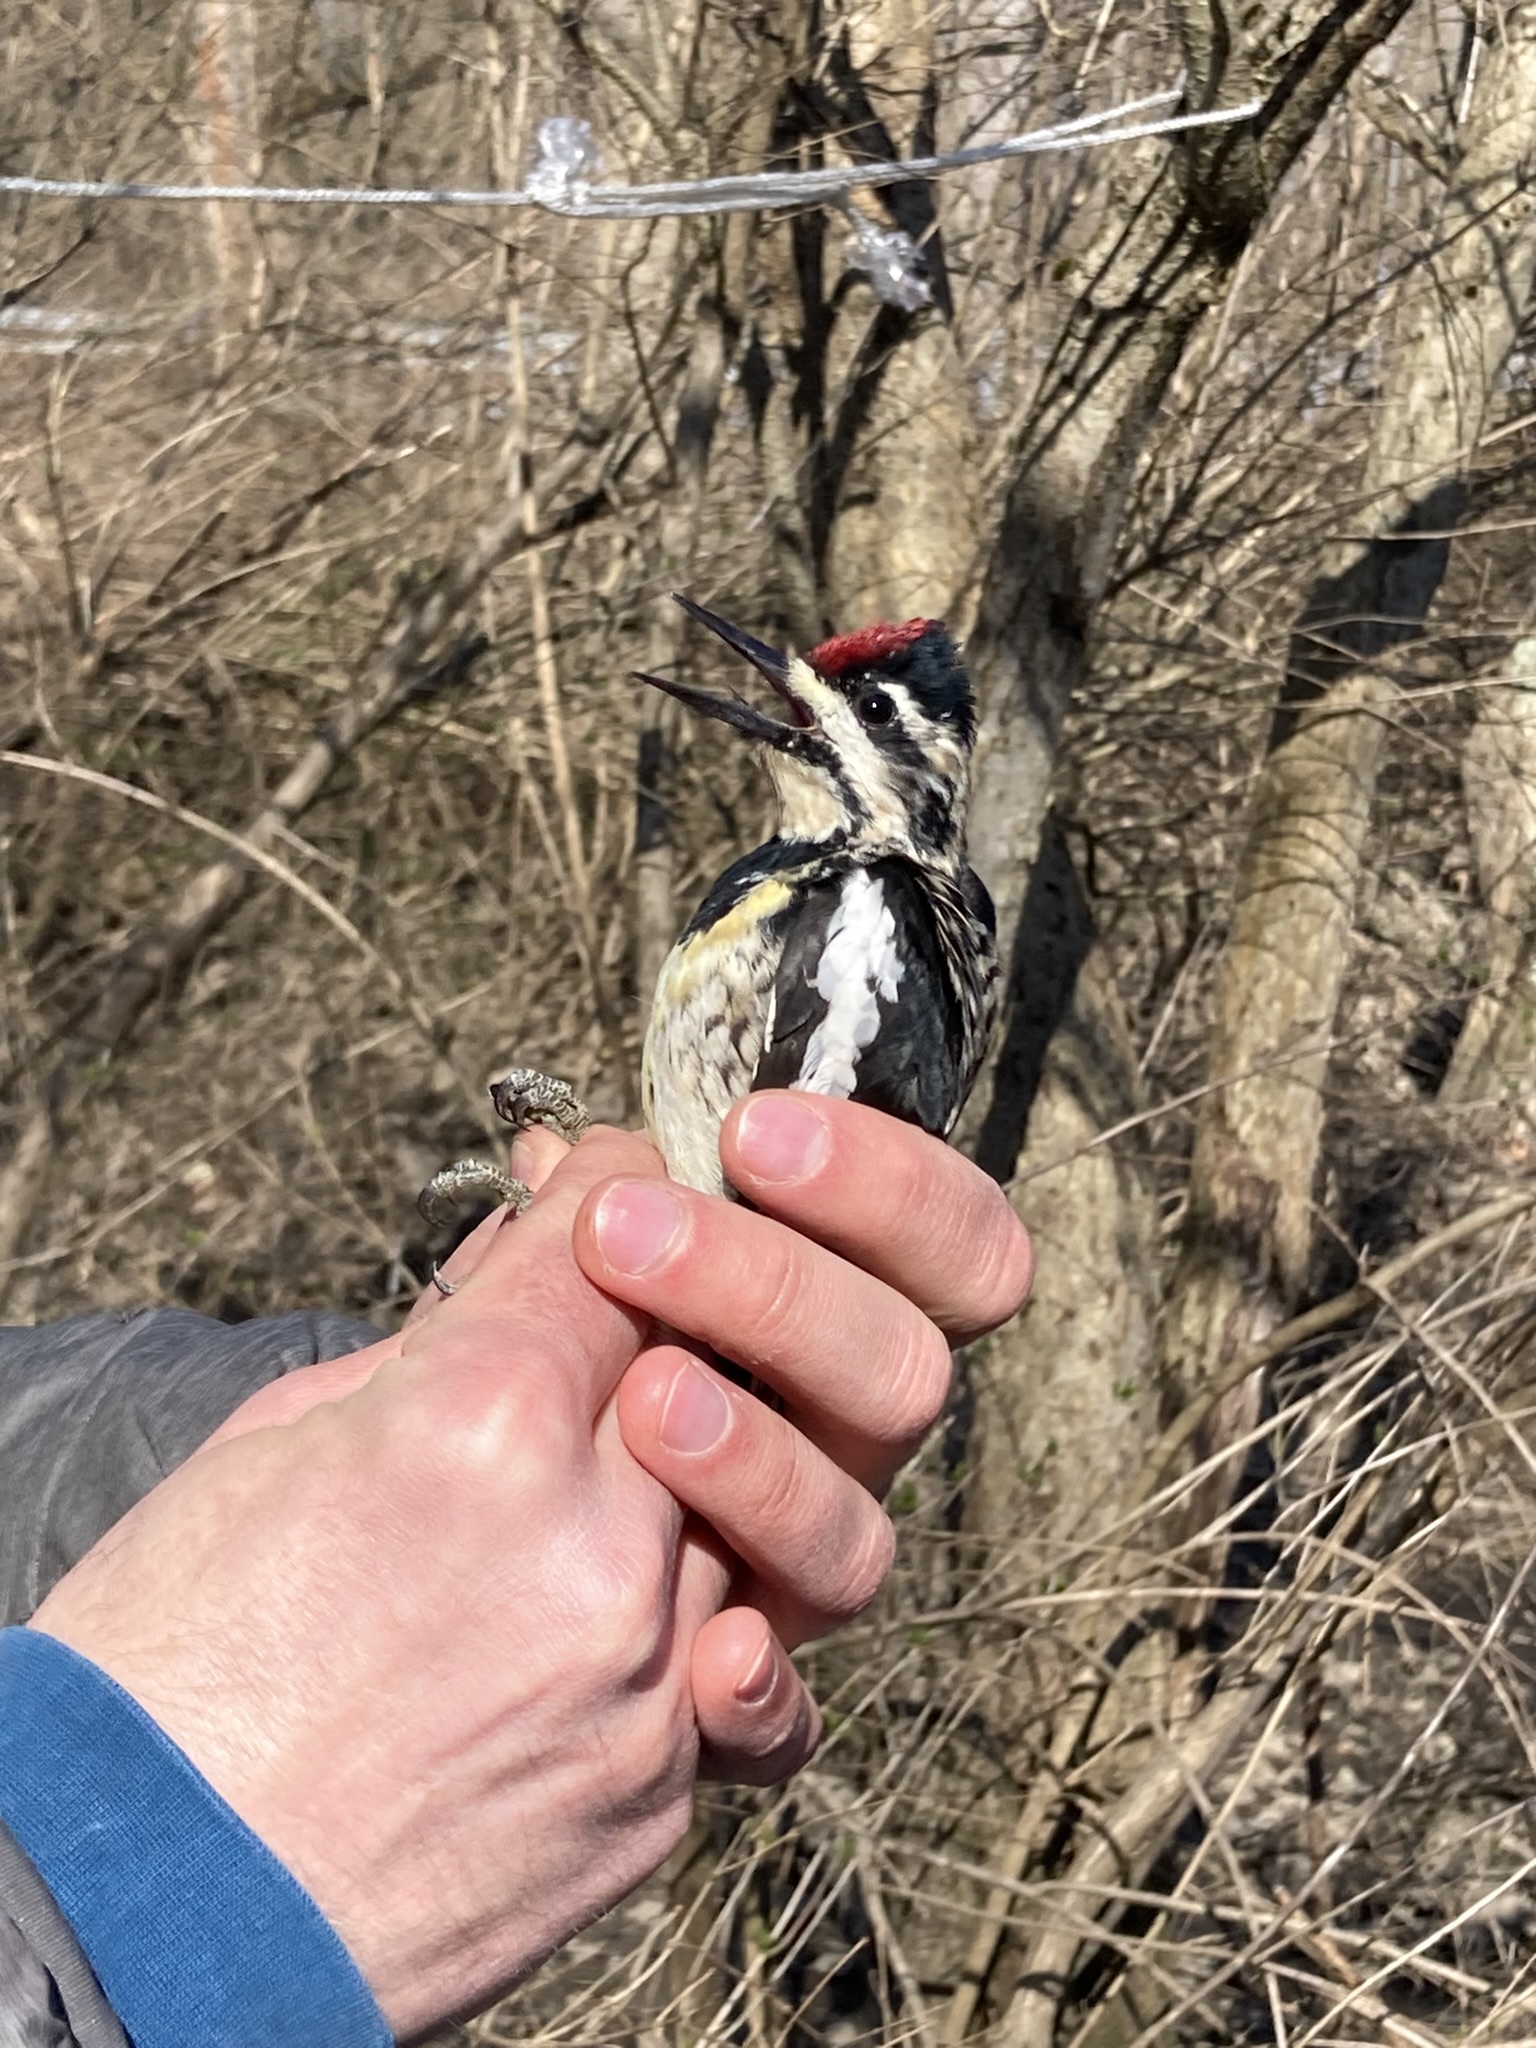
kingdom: Animalia
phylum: Chordata
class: Aves
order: Piciformes
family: Picidae
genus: Sphyrapicus
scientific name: Sphyrapicus varius
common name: Yellow-bellied sapsucker
